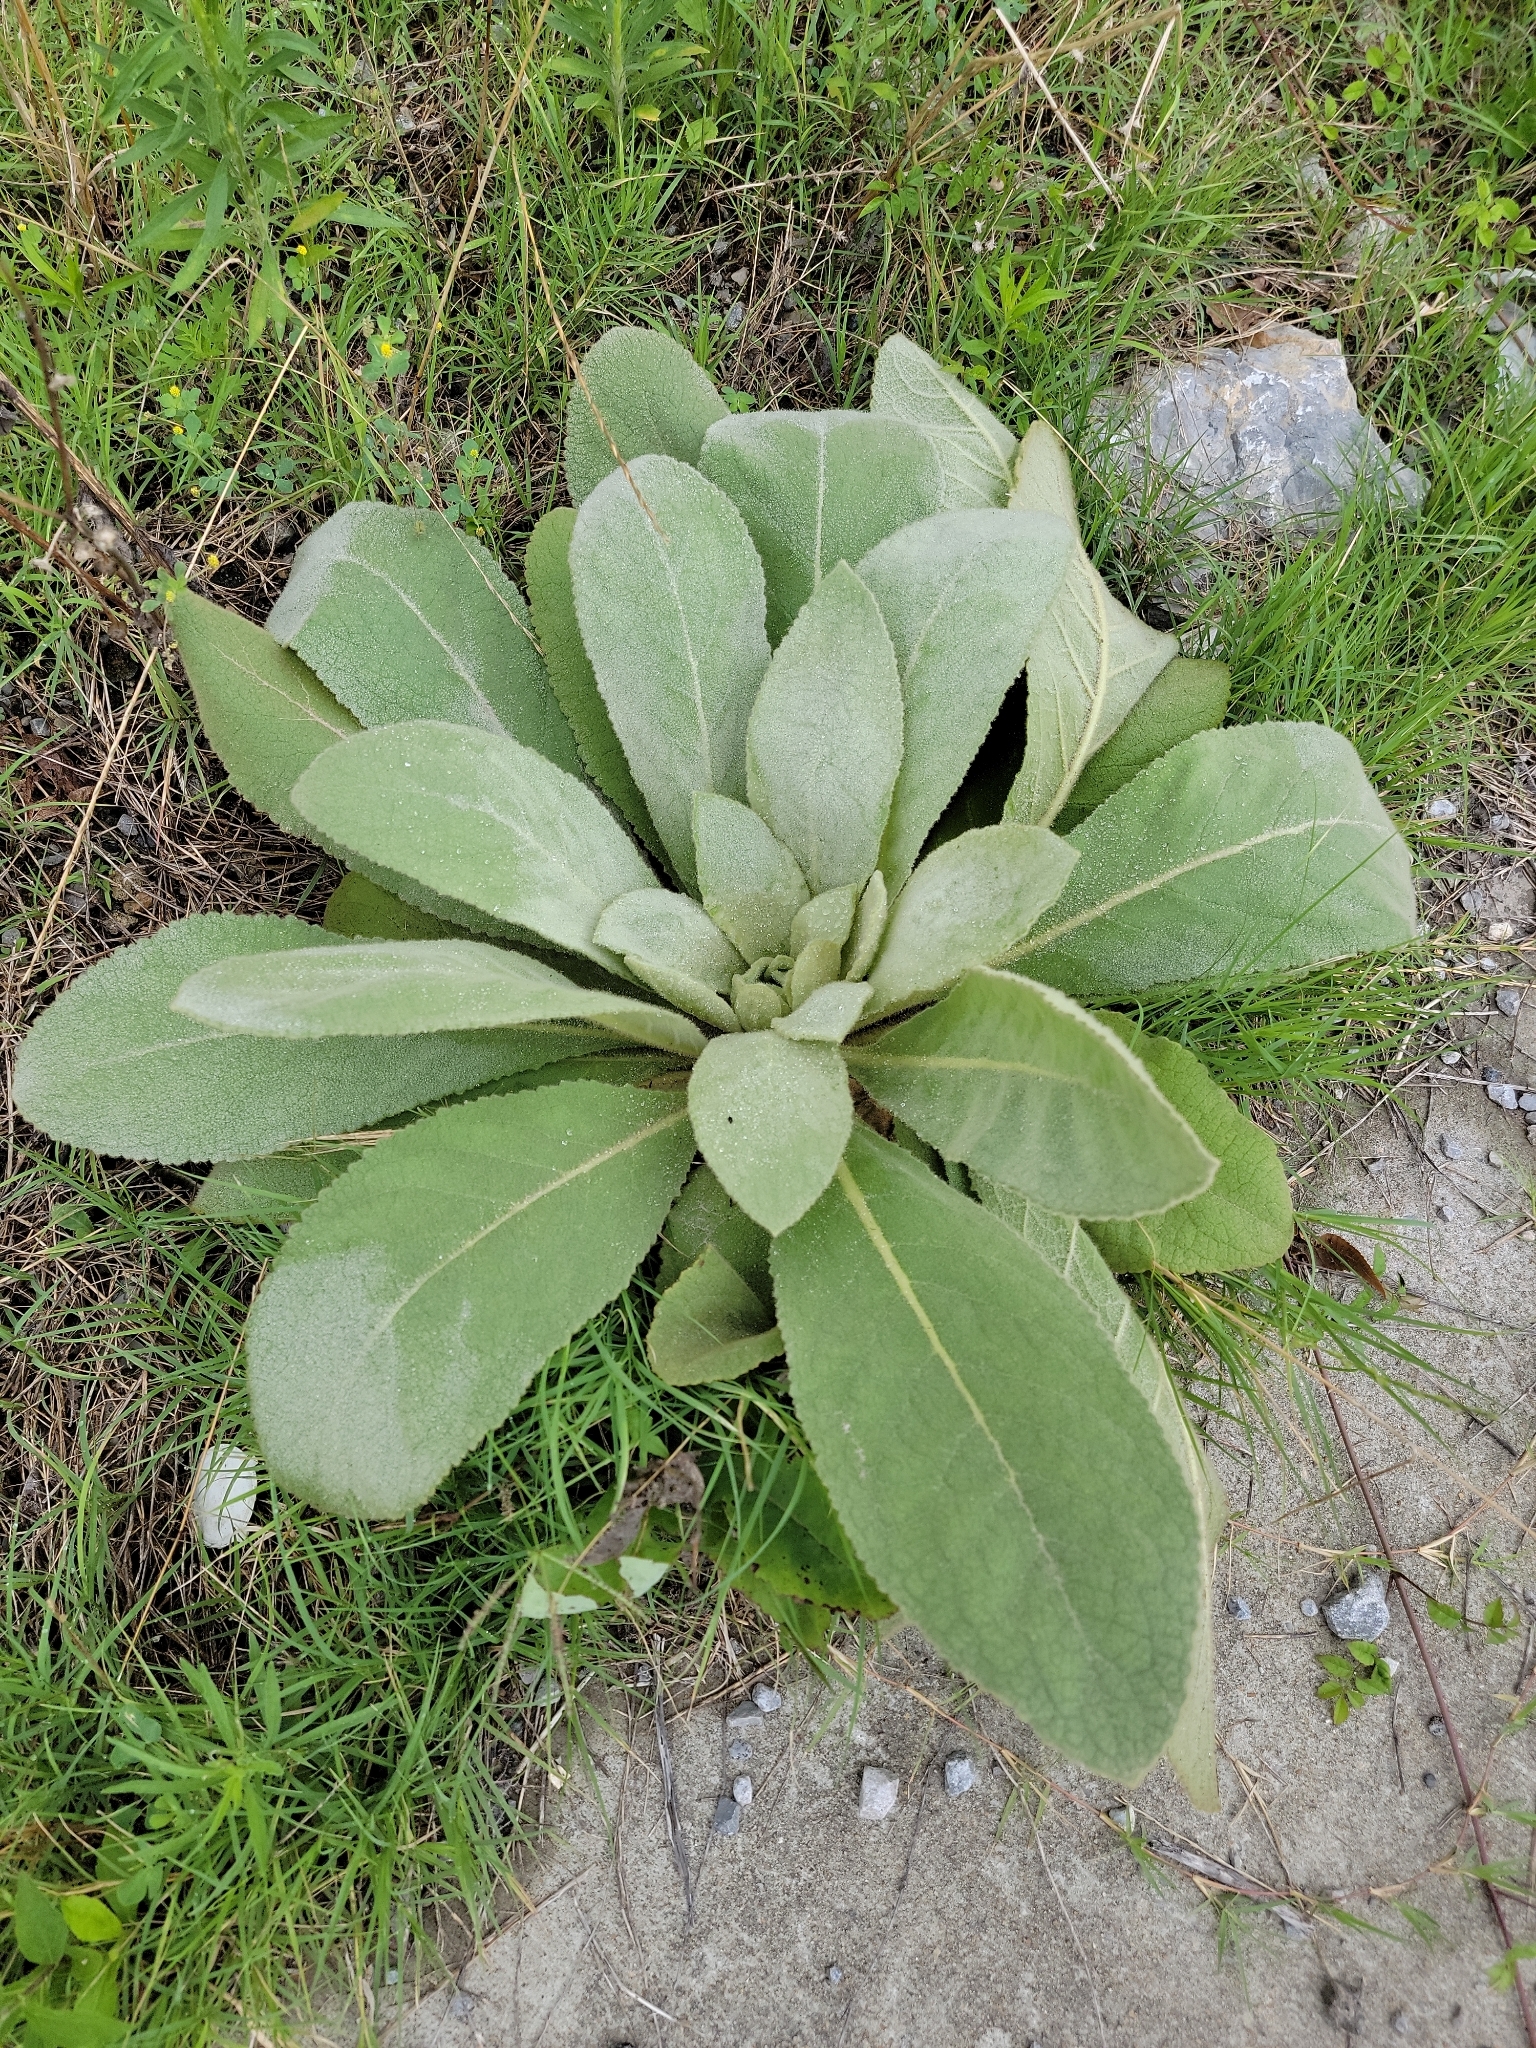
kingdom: Plantae
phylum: Tracheophyta
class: Magnoliopsida
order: Lamiales
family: Scrophulariaceae
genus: Verbascum
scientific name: Verbascum thapsus
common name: Common mullein
